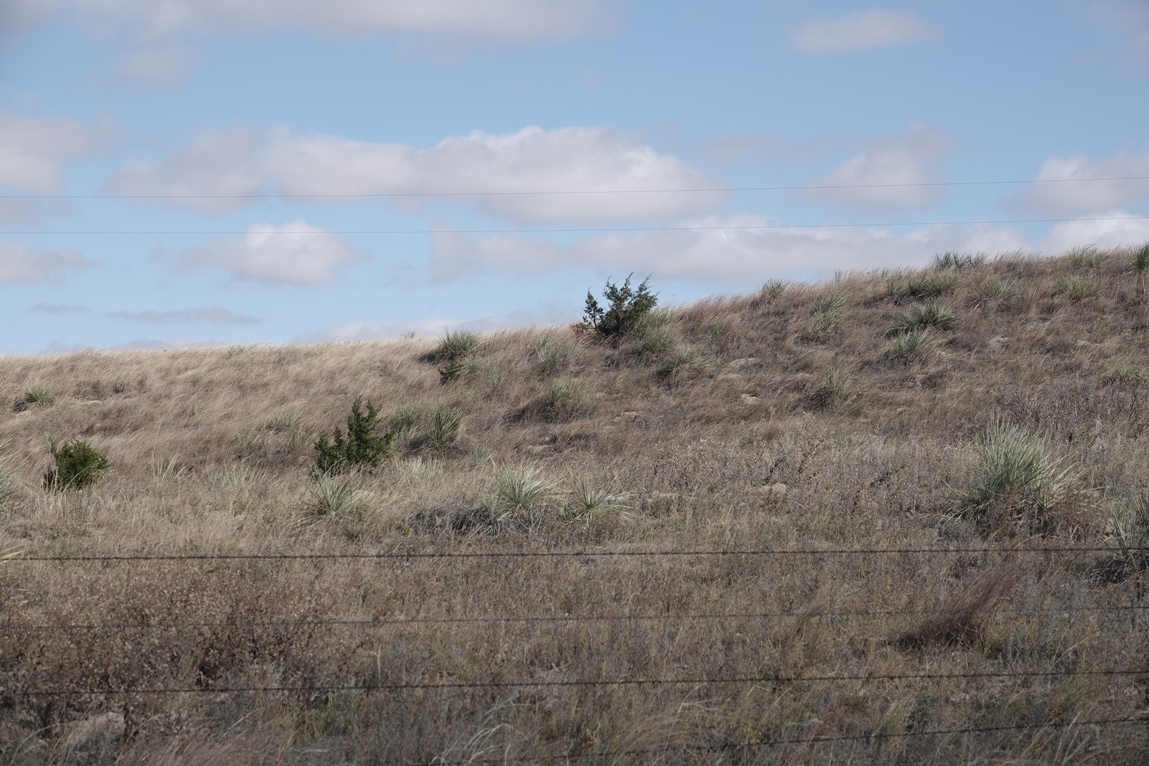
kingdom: Plantae
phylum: Tracheophyta
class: Pinopsida
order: Pinales
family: Cupressaceae
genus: Juniperus
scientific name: Juniperus virginiana
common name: Red juniper
